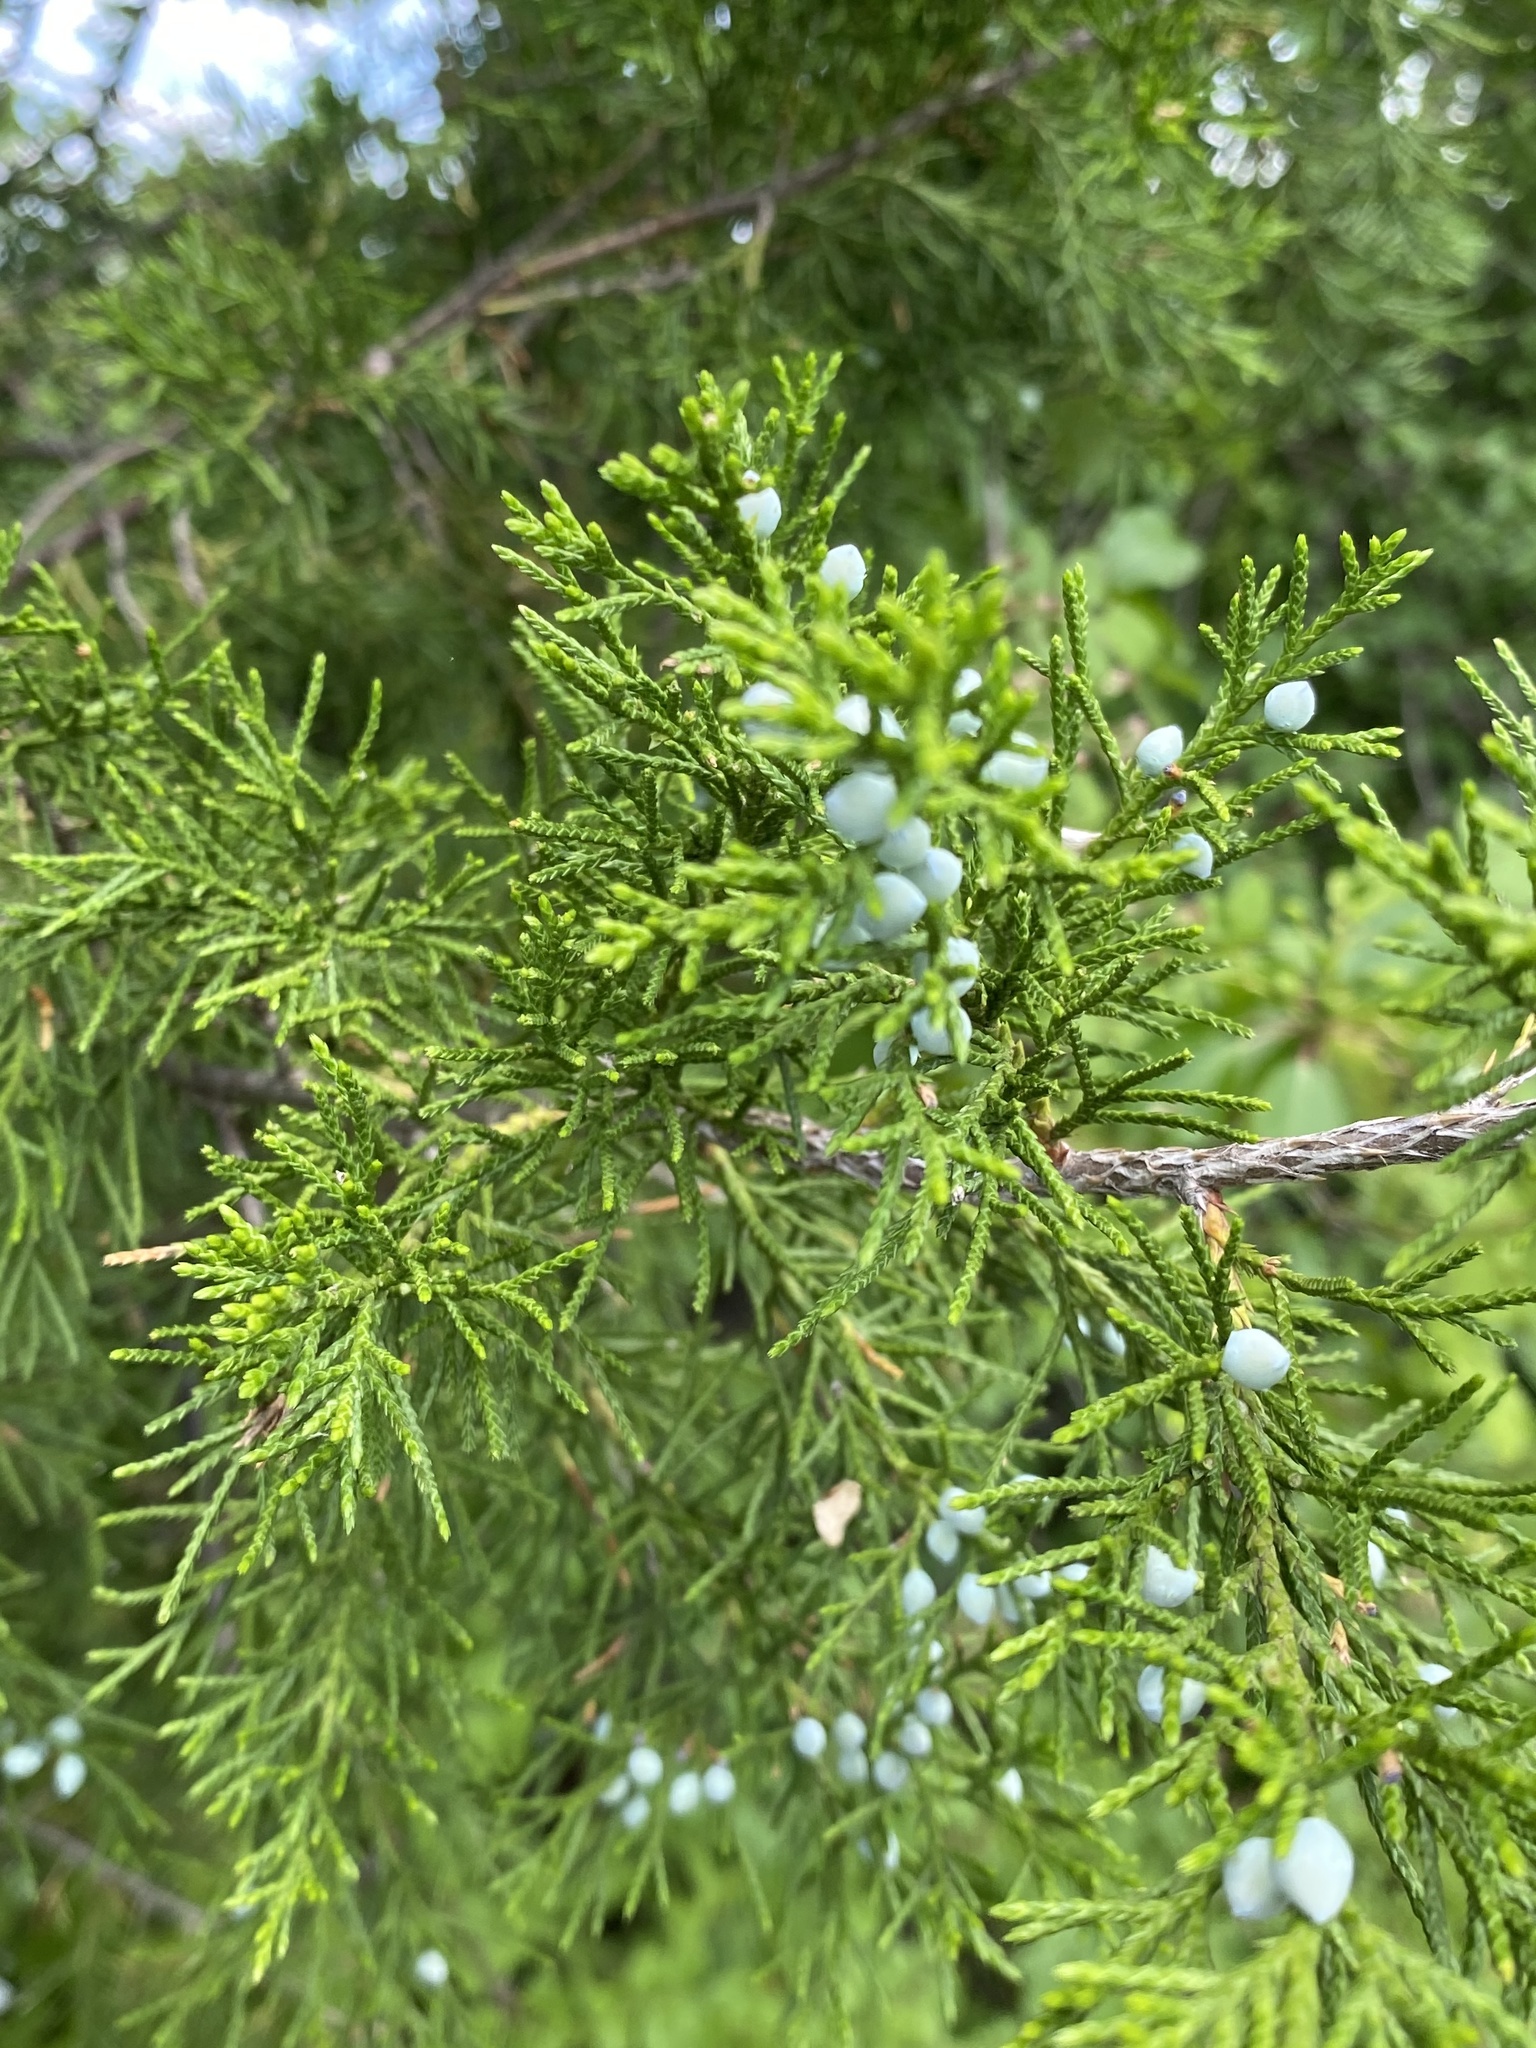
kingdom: Plantae
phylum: Tracheophyta
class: Pinopsida
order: Pinales
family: Cupressaceae
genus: Juniperus
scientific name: Juniperus virginiana
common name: Red juniper
